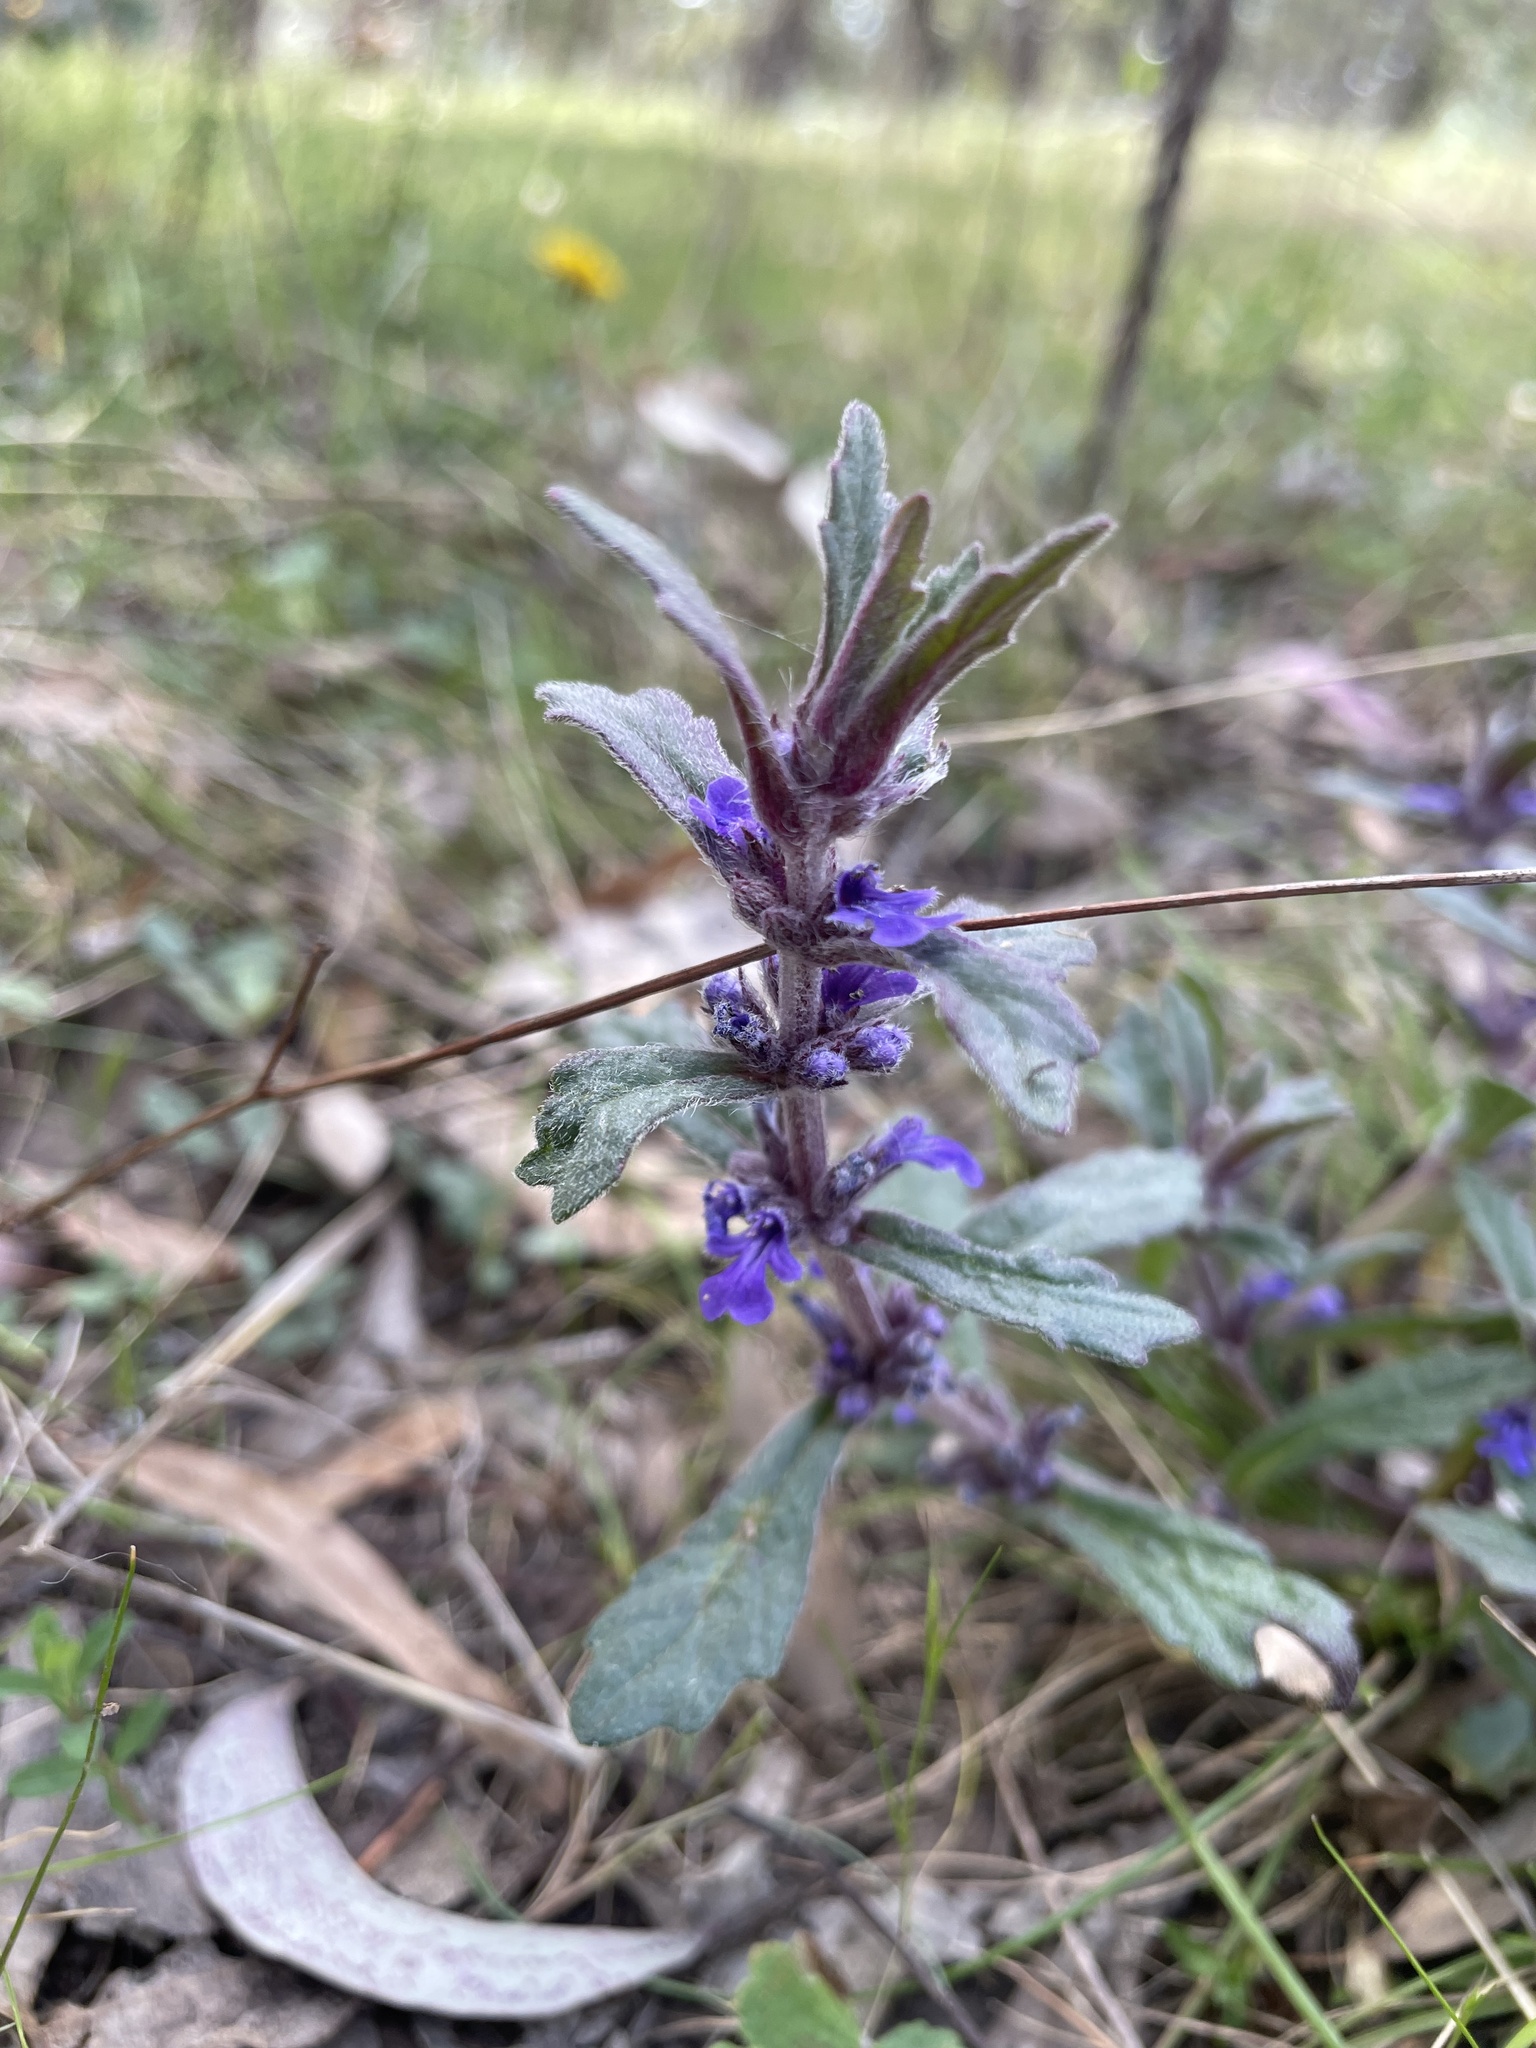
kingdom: Plantae
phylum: Tracheophyta
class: Magnoliopsida
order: Lamiales
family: Lamiaceae
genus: Ajuga
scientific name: Ajuga australis
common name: Australian bugle
